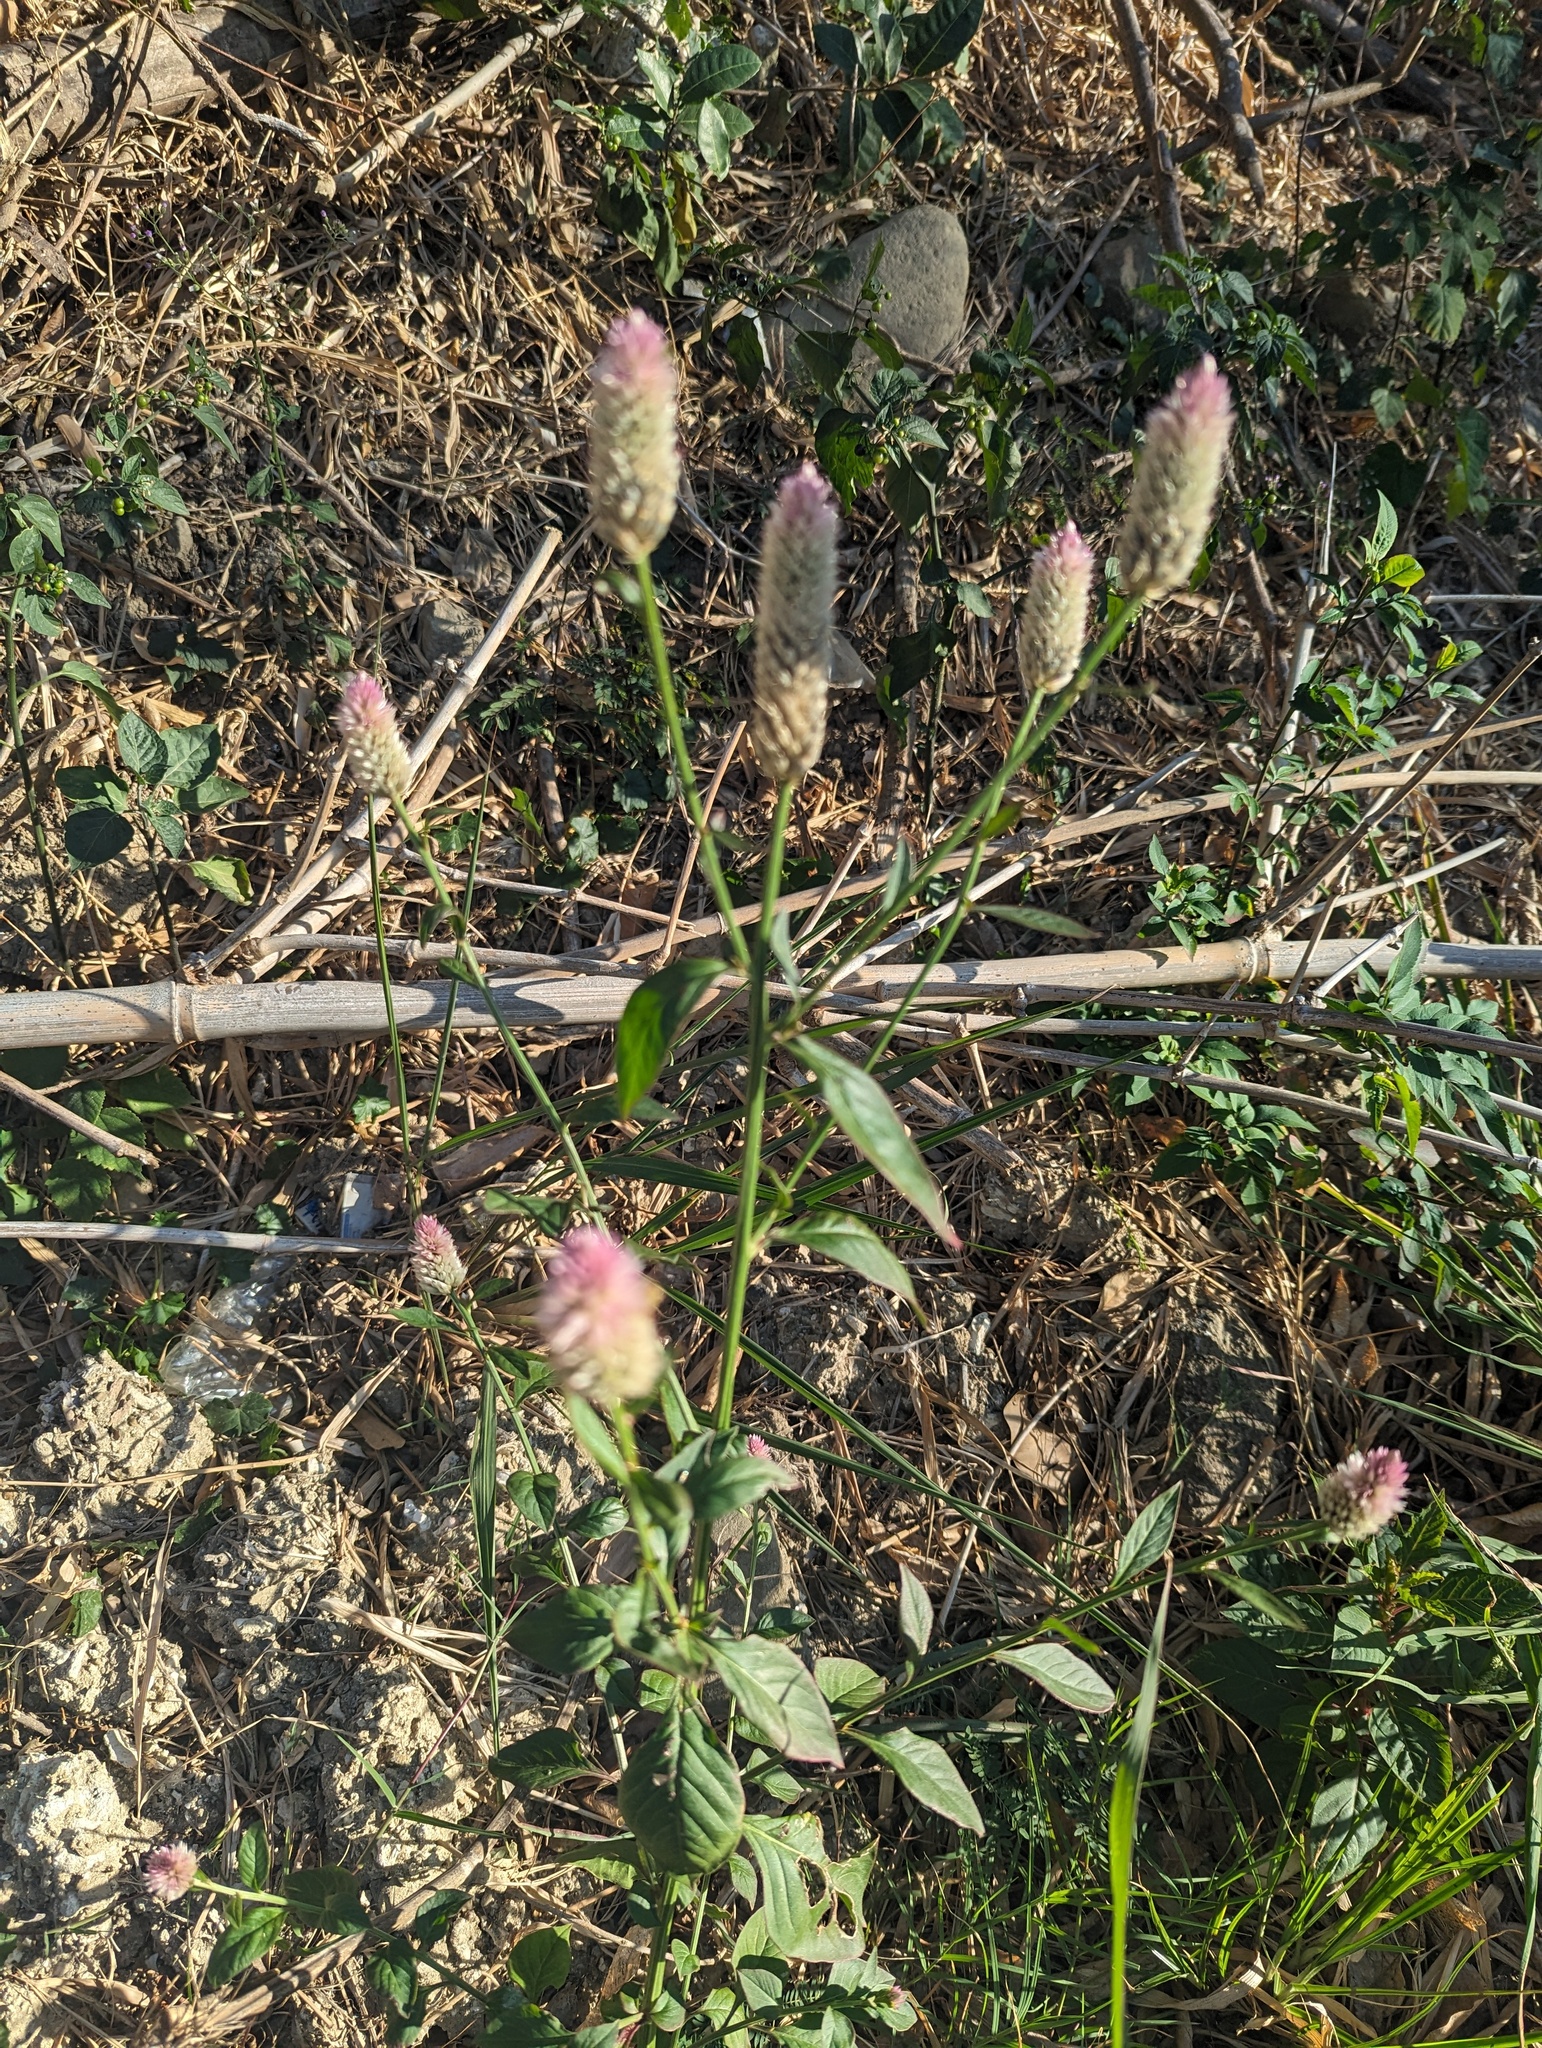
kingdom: Plantae
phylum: Tracheophyta
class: Magnoliopsida
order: Caryophyllales
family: Amaranthaceae
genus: Celosia
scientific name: Celosia argentea
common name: Feather cockscomb
